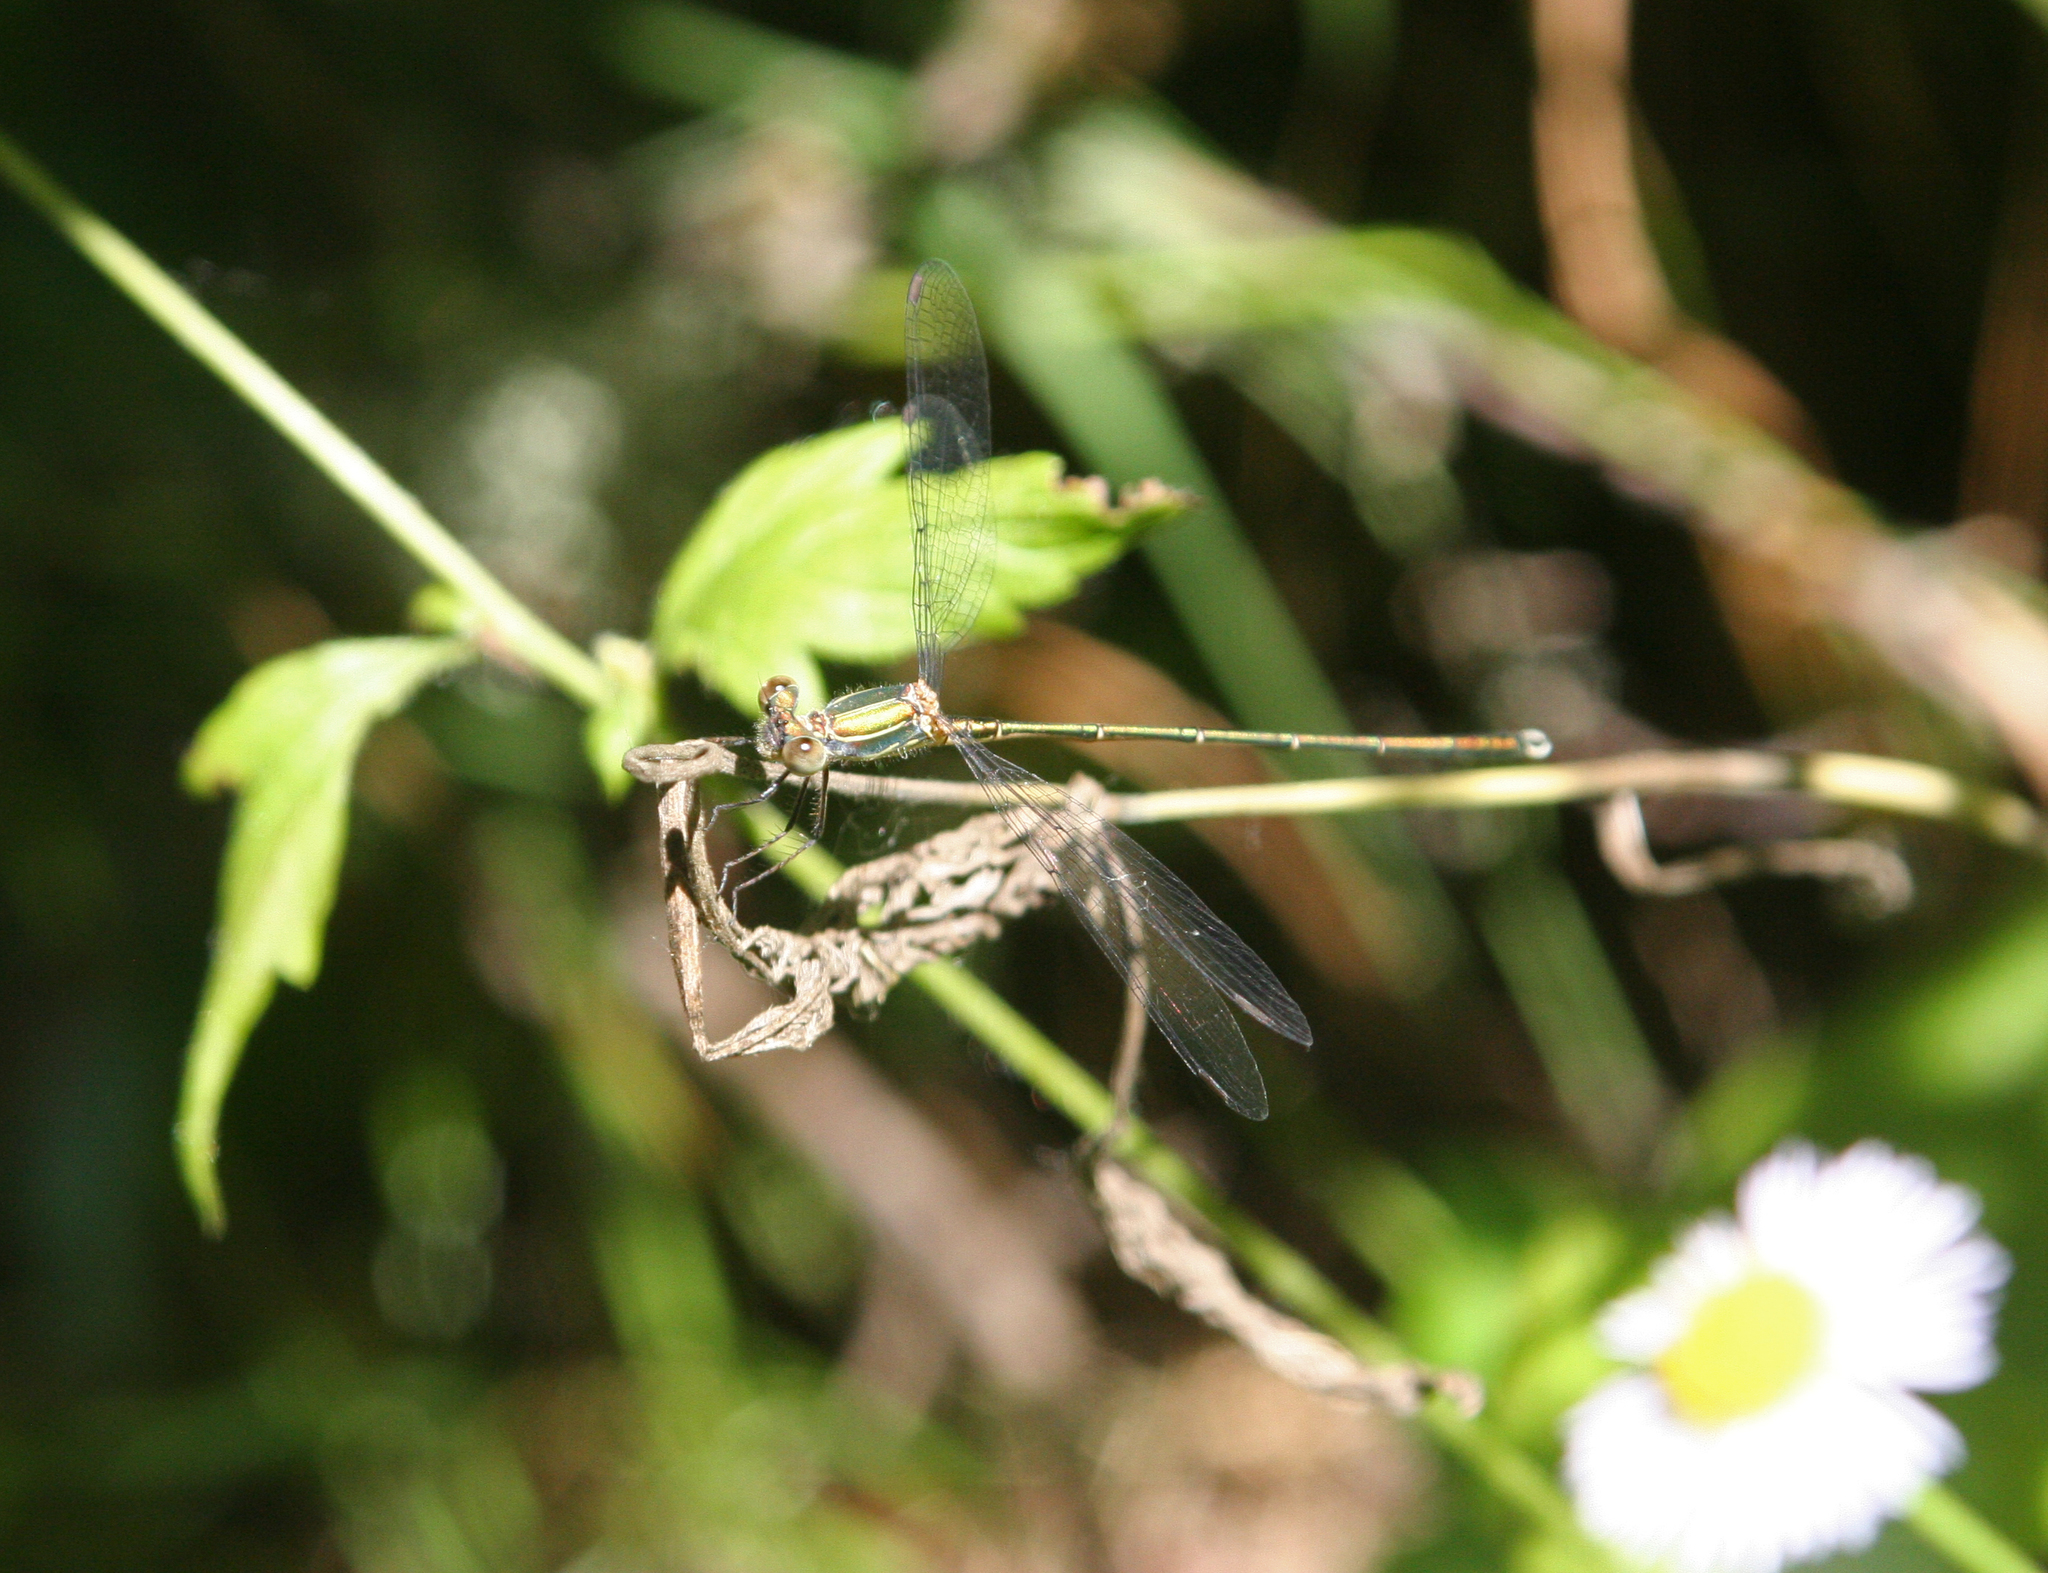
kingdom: Animalia
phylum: Arthropoda
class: Insecta
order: Odonata
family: Lestidae
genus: Chalcolestes
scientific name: Chalcolestes parvidens
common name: Eastern willow spreadwing
